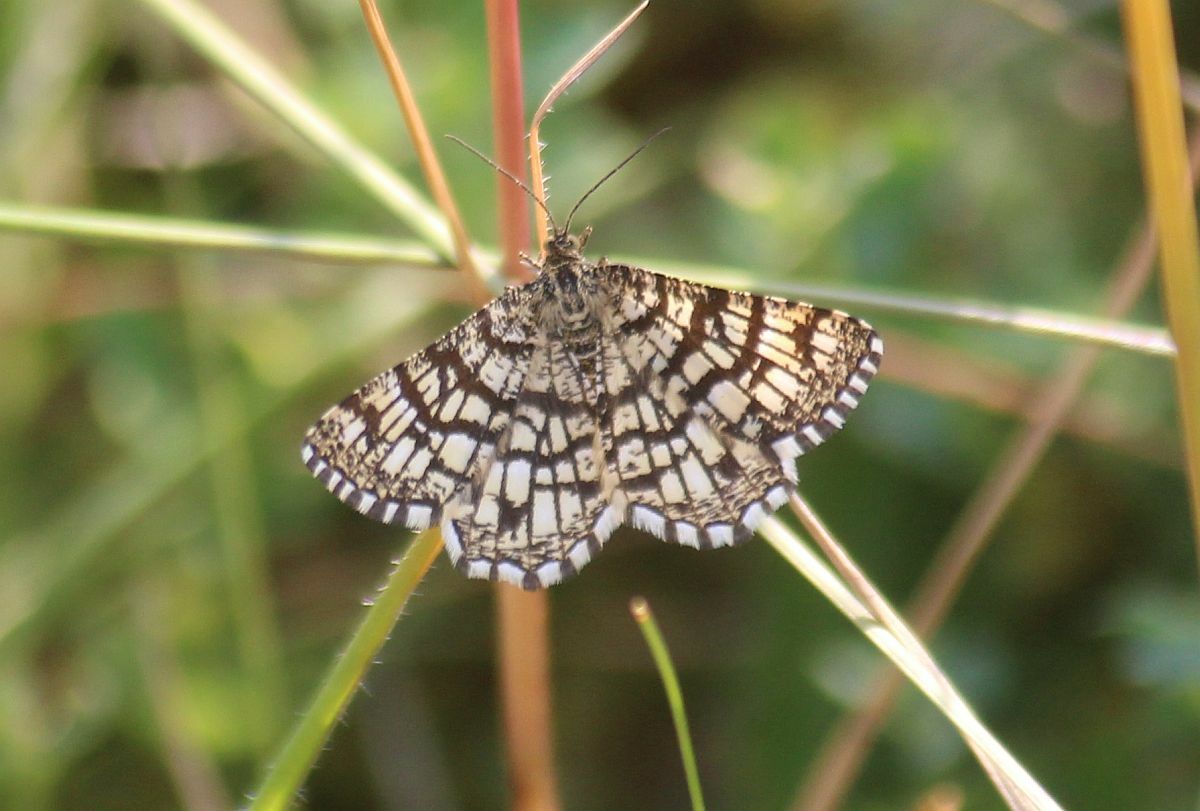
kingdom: Animalia
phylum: Arthropoda
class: Insecta
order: Lepidoptera
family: Geometridae
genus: Chiasmia
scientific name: Chiasmia clathrata
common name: Latticed heath
